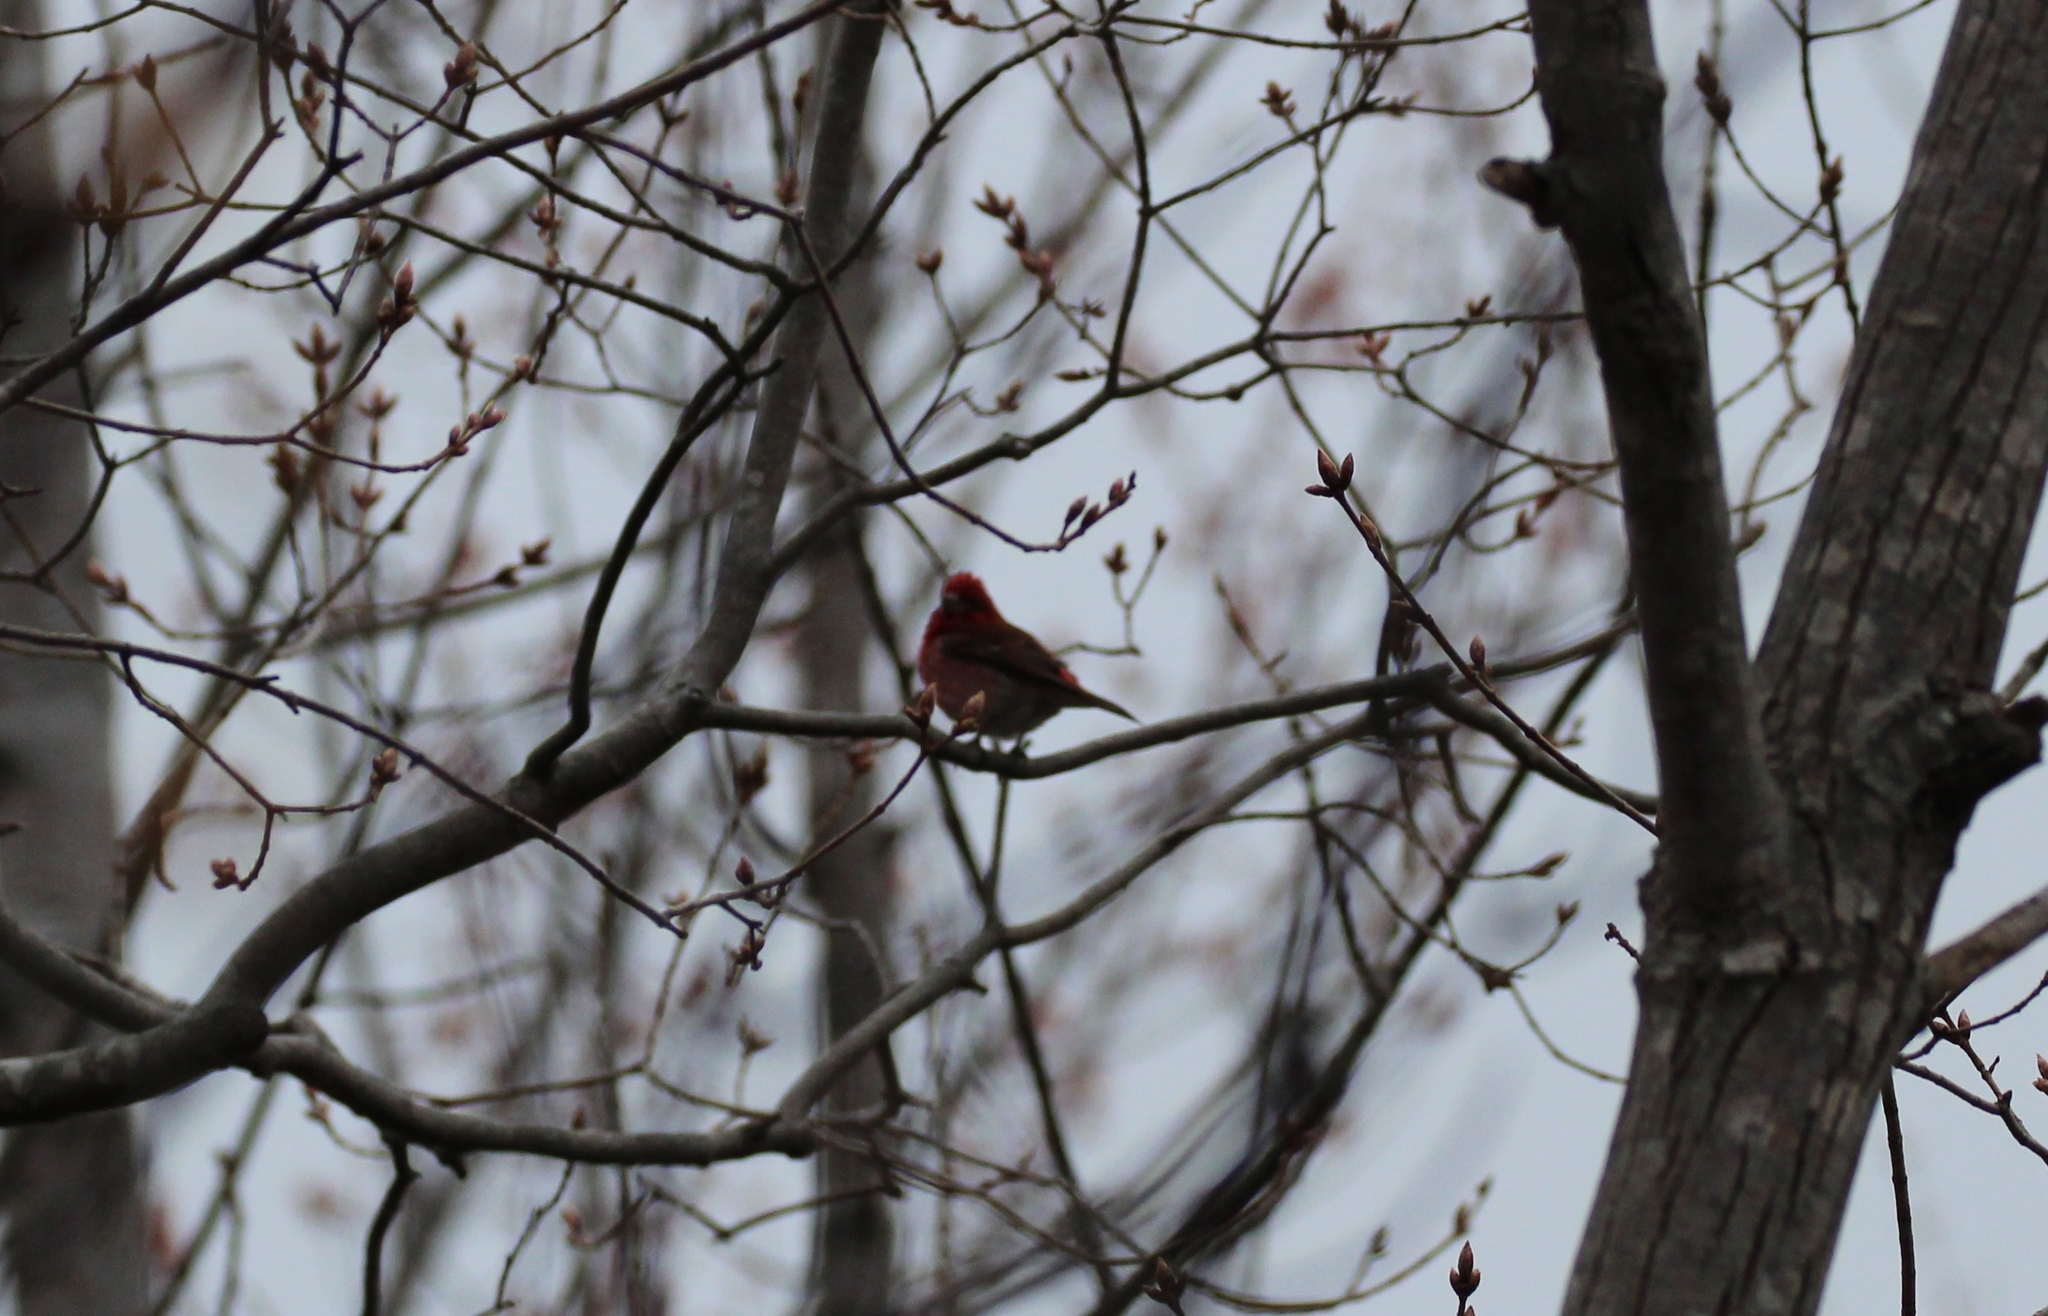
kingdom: Animalia
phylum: Chordata
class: Aves
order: Passeriformes
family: Fringillidae
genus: Haemorhous
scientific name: Haemorhous purpureus
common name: Purple finch
